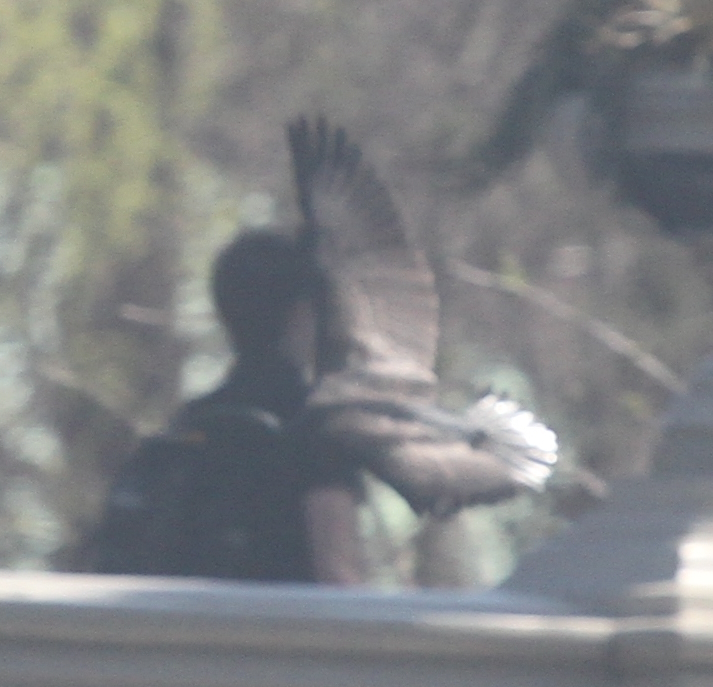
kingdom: Animalia
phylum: Chordata
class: Aves
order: Suliformes
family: Phalacrocoracidae
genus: Phalacrocorax
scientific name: Phalacrocorax auritus
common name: Double-crested cormorant
